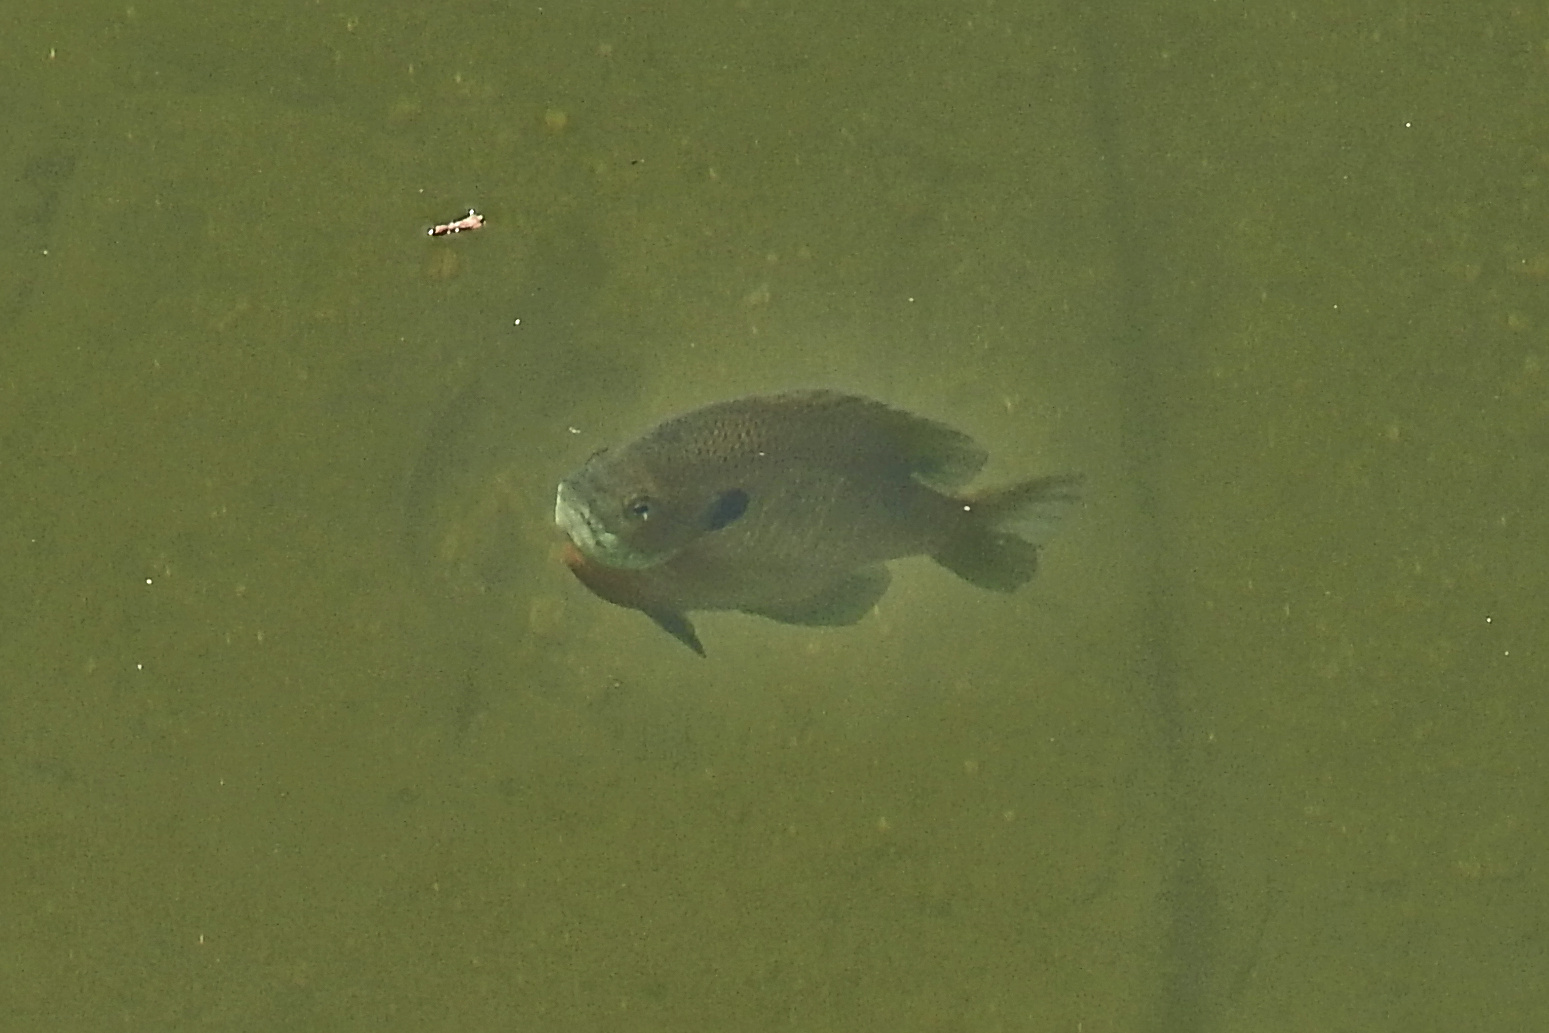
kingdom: Animalia
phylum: Chordata
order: Perciformes
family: Centrarchidae
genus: Lepomis
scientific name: Lepomis macrochirus
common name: Bluegill
